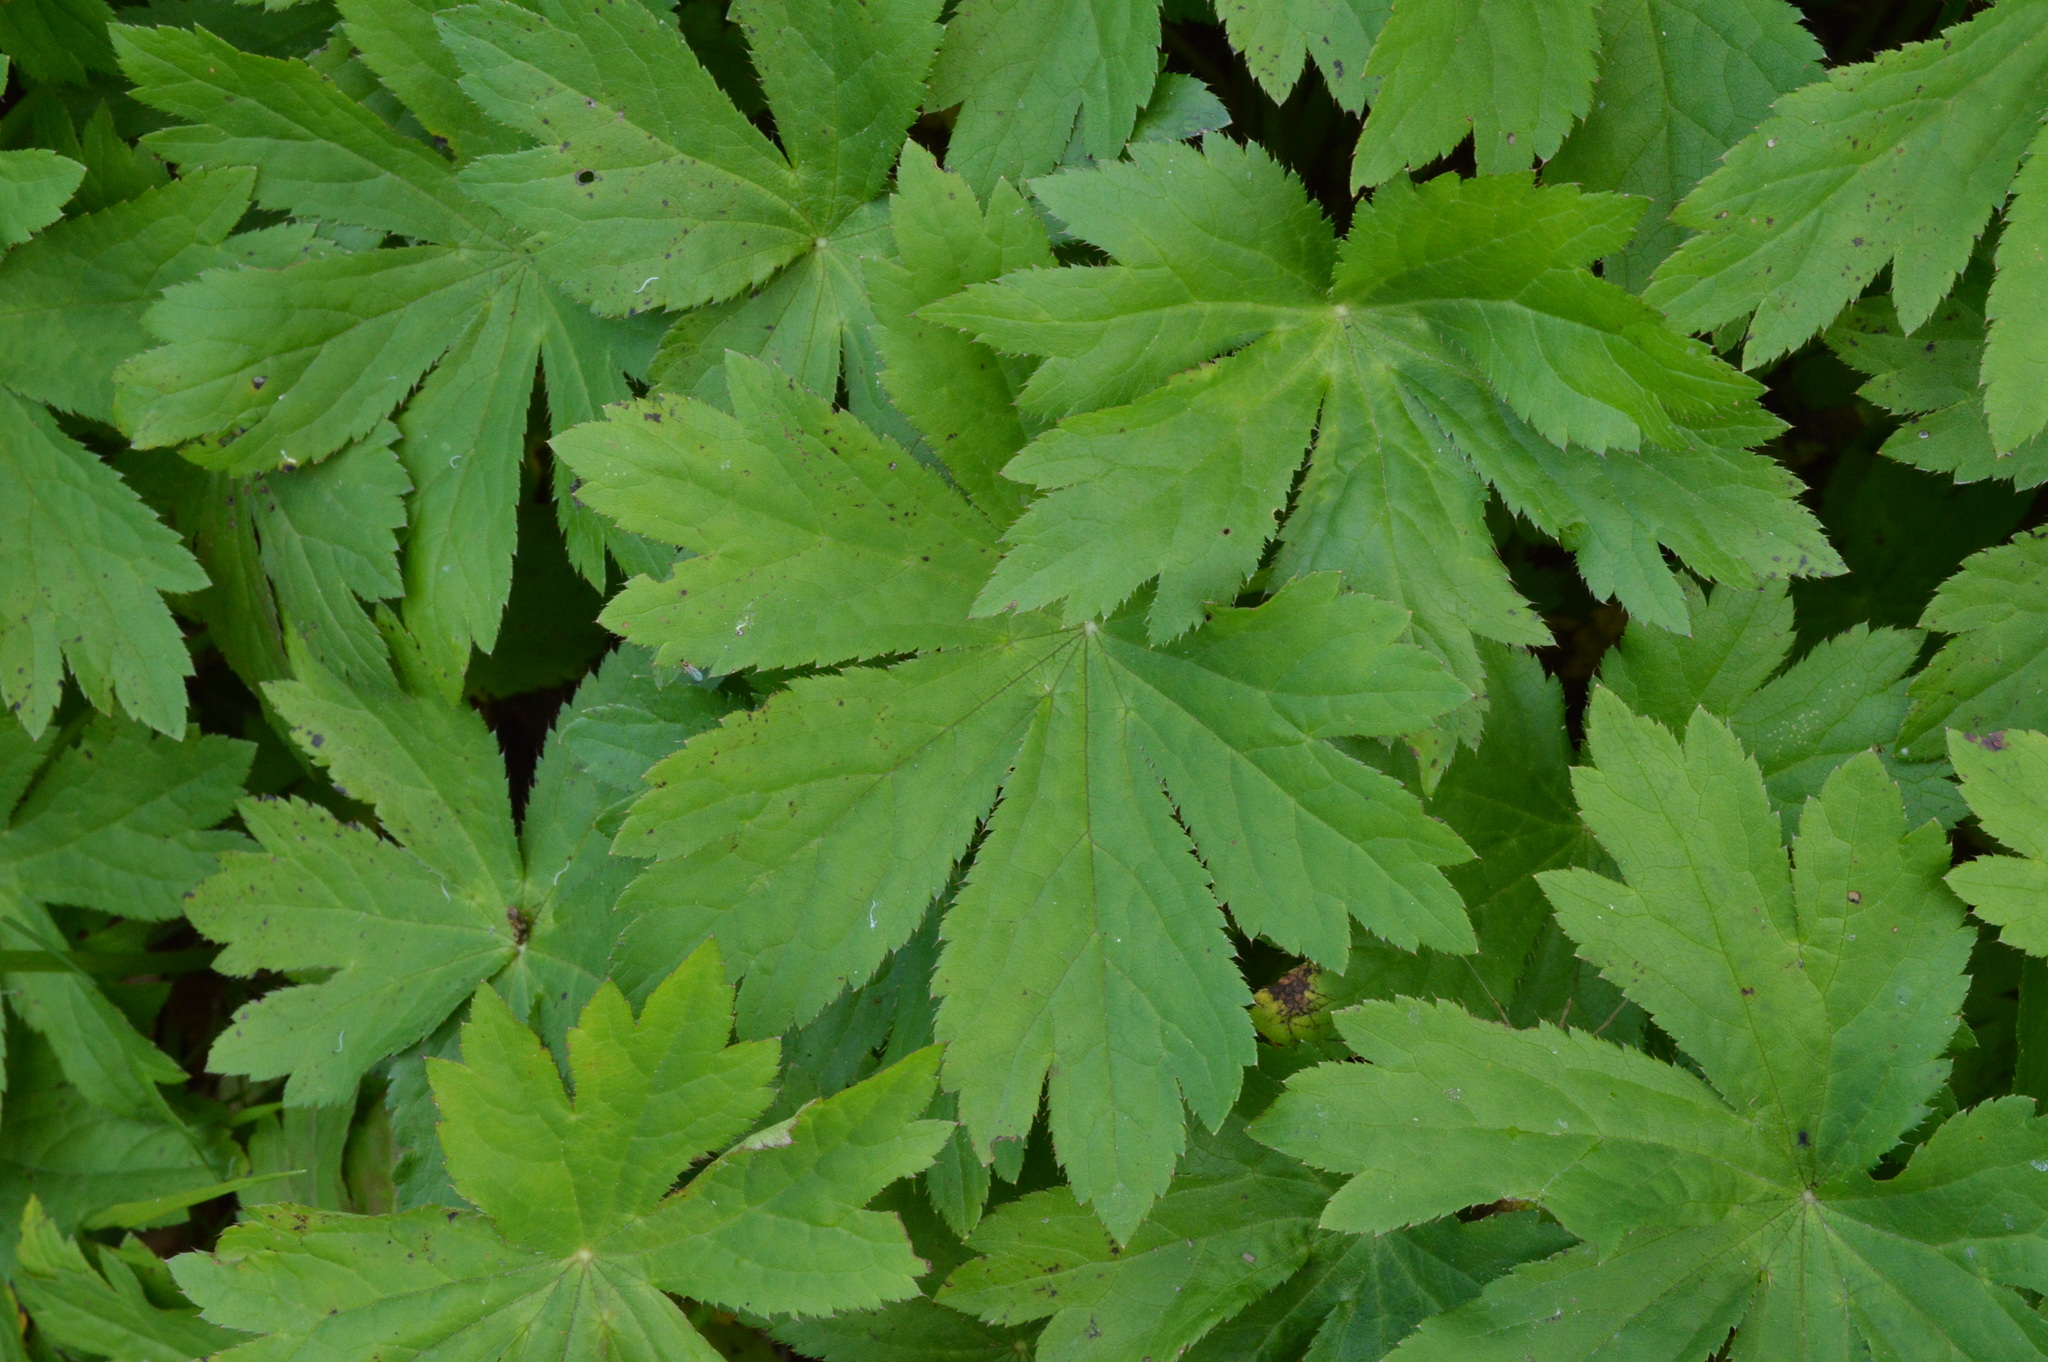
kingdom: Plantae
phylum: Tracheophyta
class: Magnoliopsida
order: Apiales
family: Apiaceae
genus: Astrantia
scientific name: Astrantia major
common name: Greater masterwort
